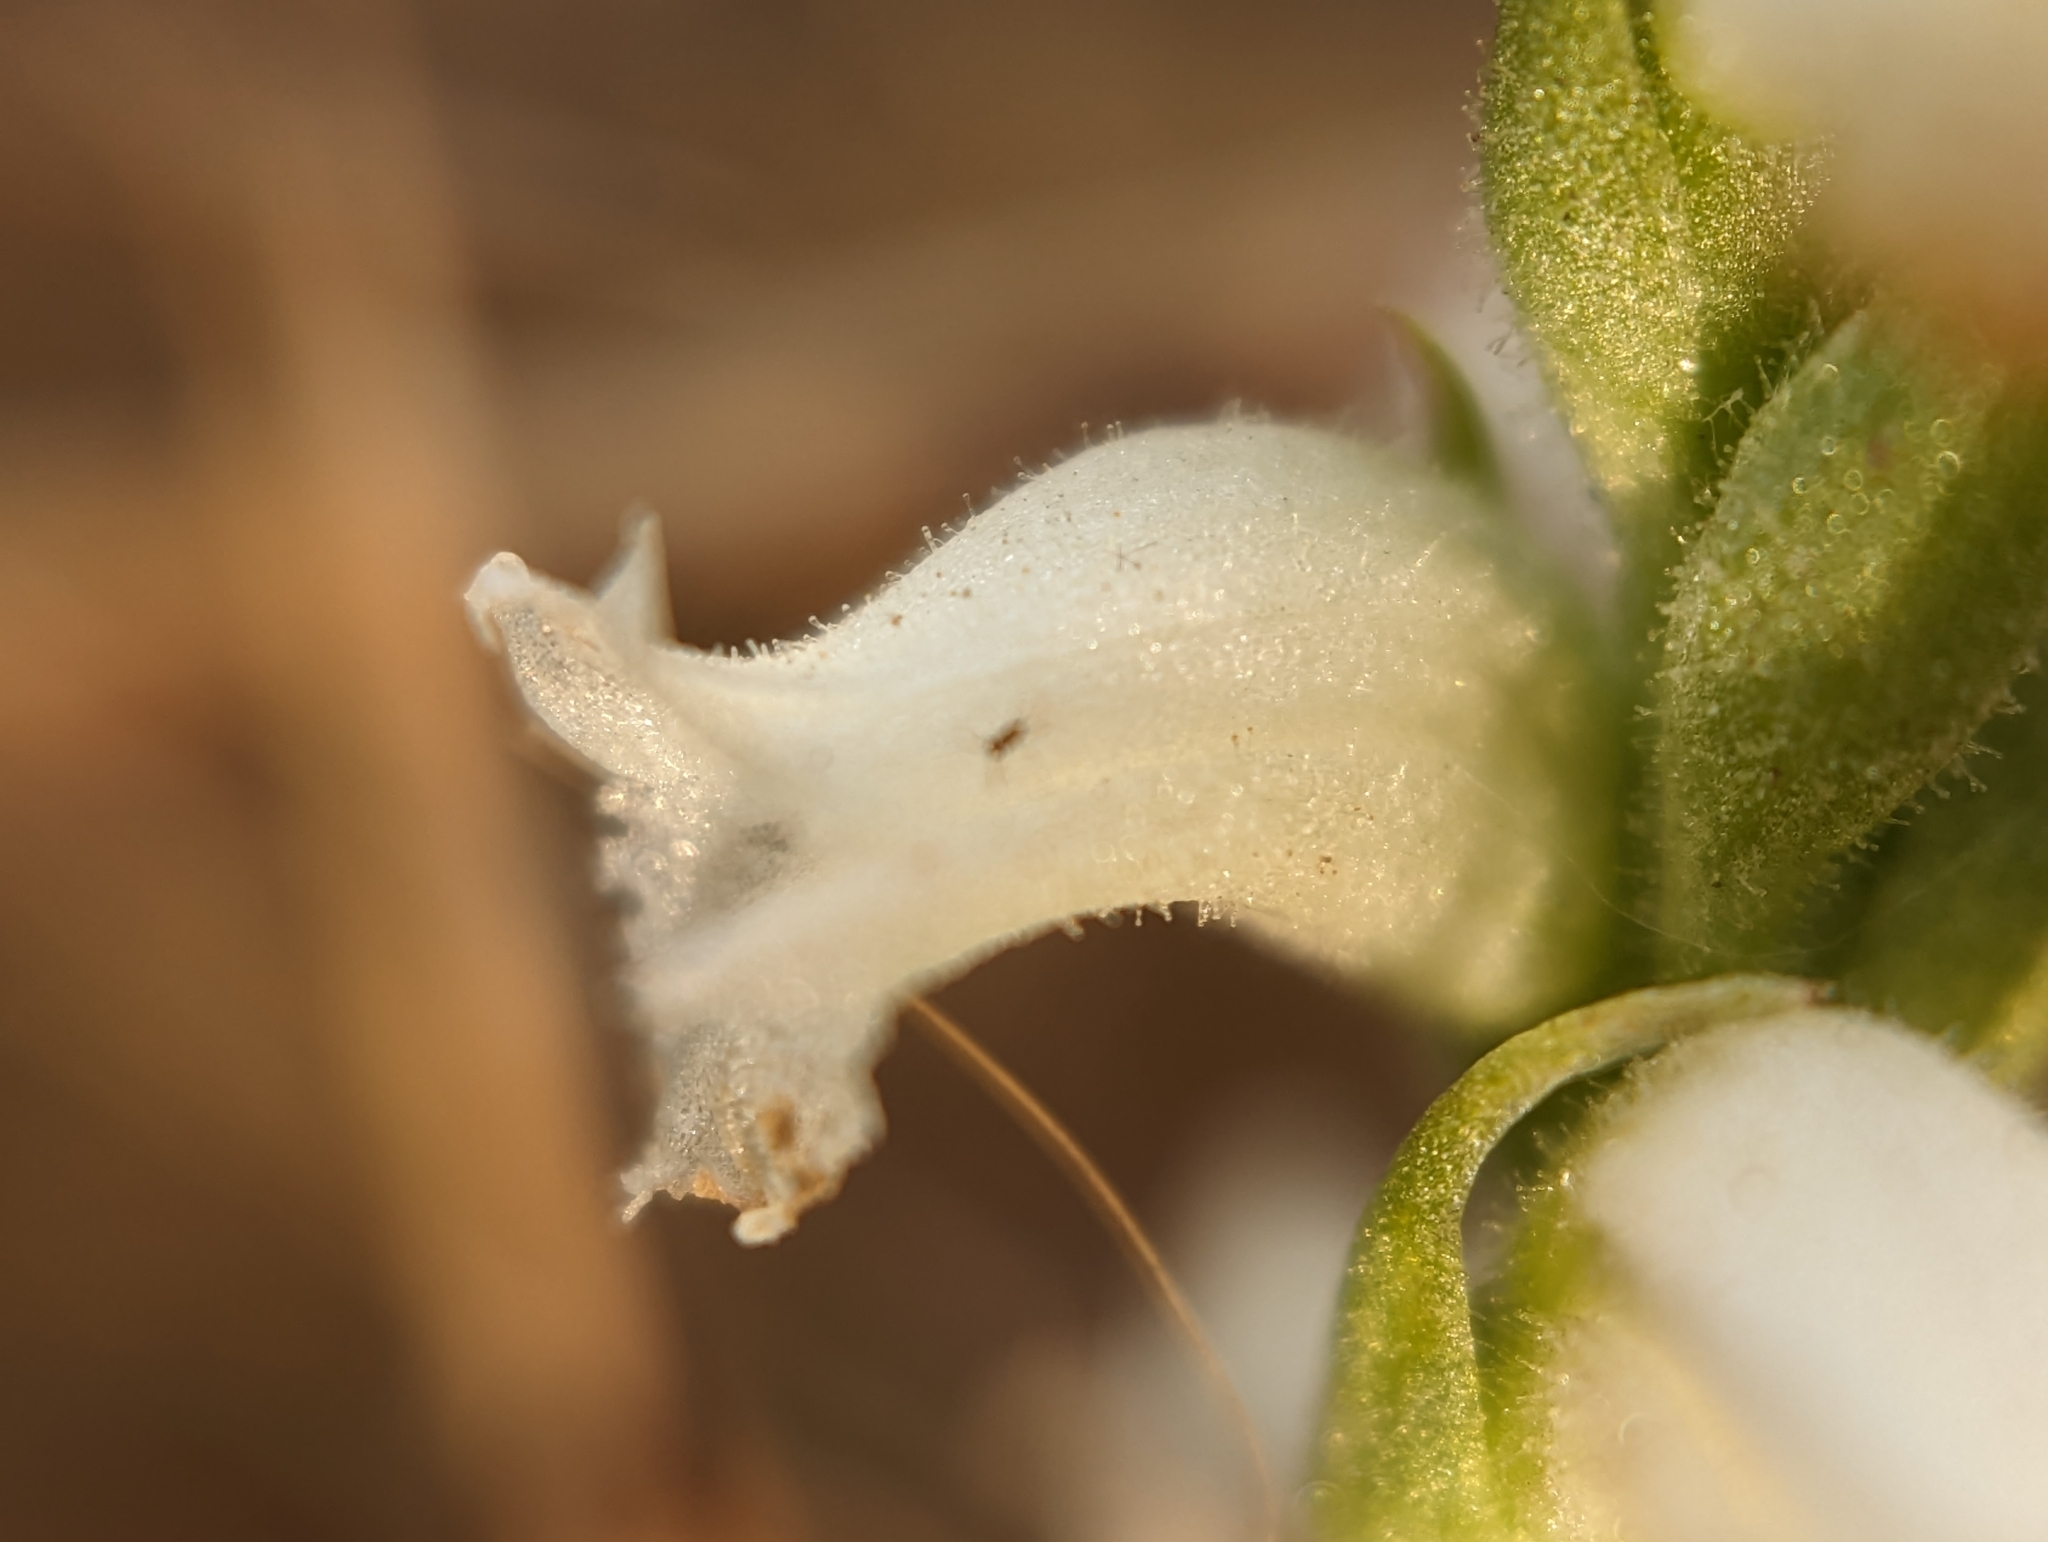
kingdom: Plantae
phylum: Tracheophyta
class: Liliopsida
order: Asparagales
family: Orchidaceae
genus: Spiranthes
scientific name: Spiranthes ochroleuca
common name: Yellow ladies'-tresses
